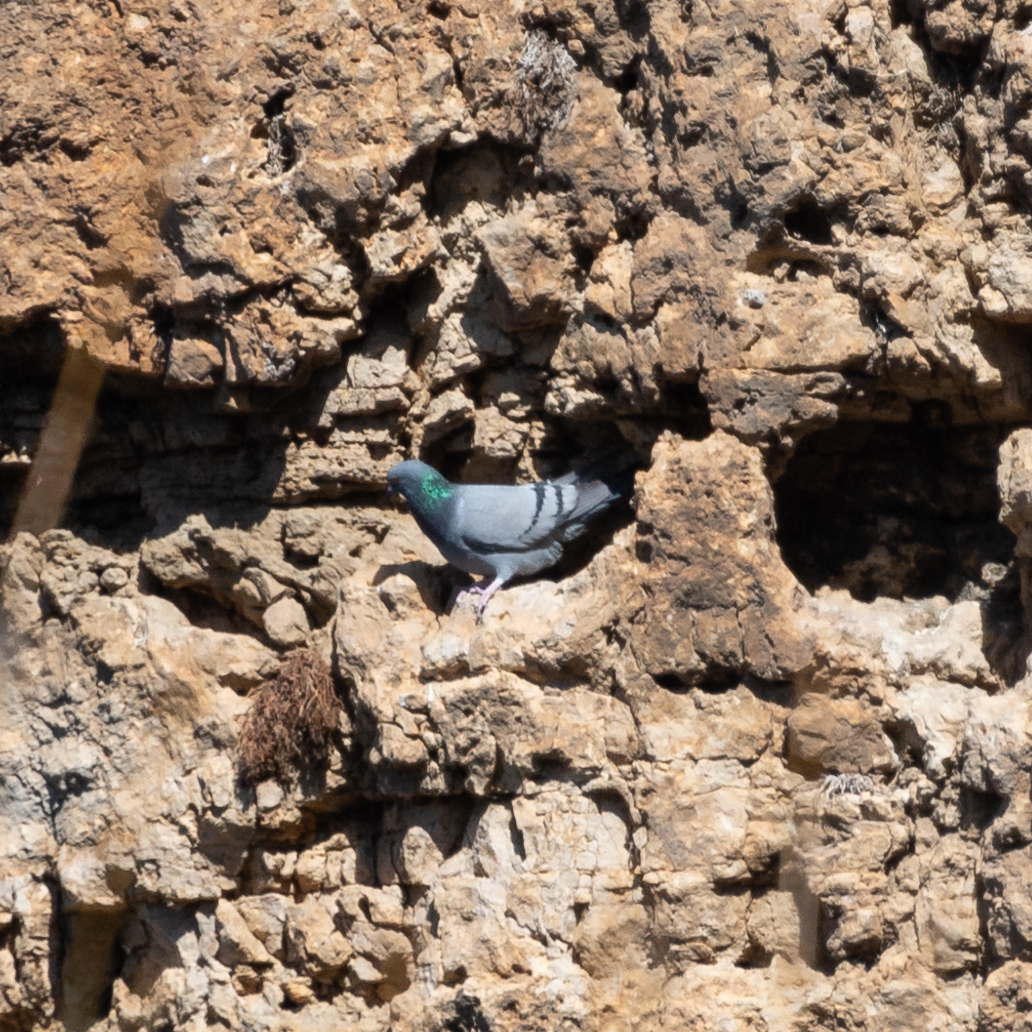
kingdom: Animalia
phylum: Chordata
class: Aves
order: Columbiformes
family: Columbidae
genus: Columba
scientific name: Columba livia
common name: Rock pigeon
